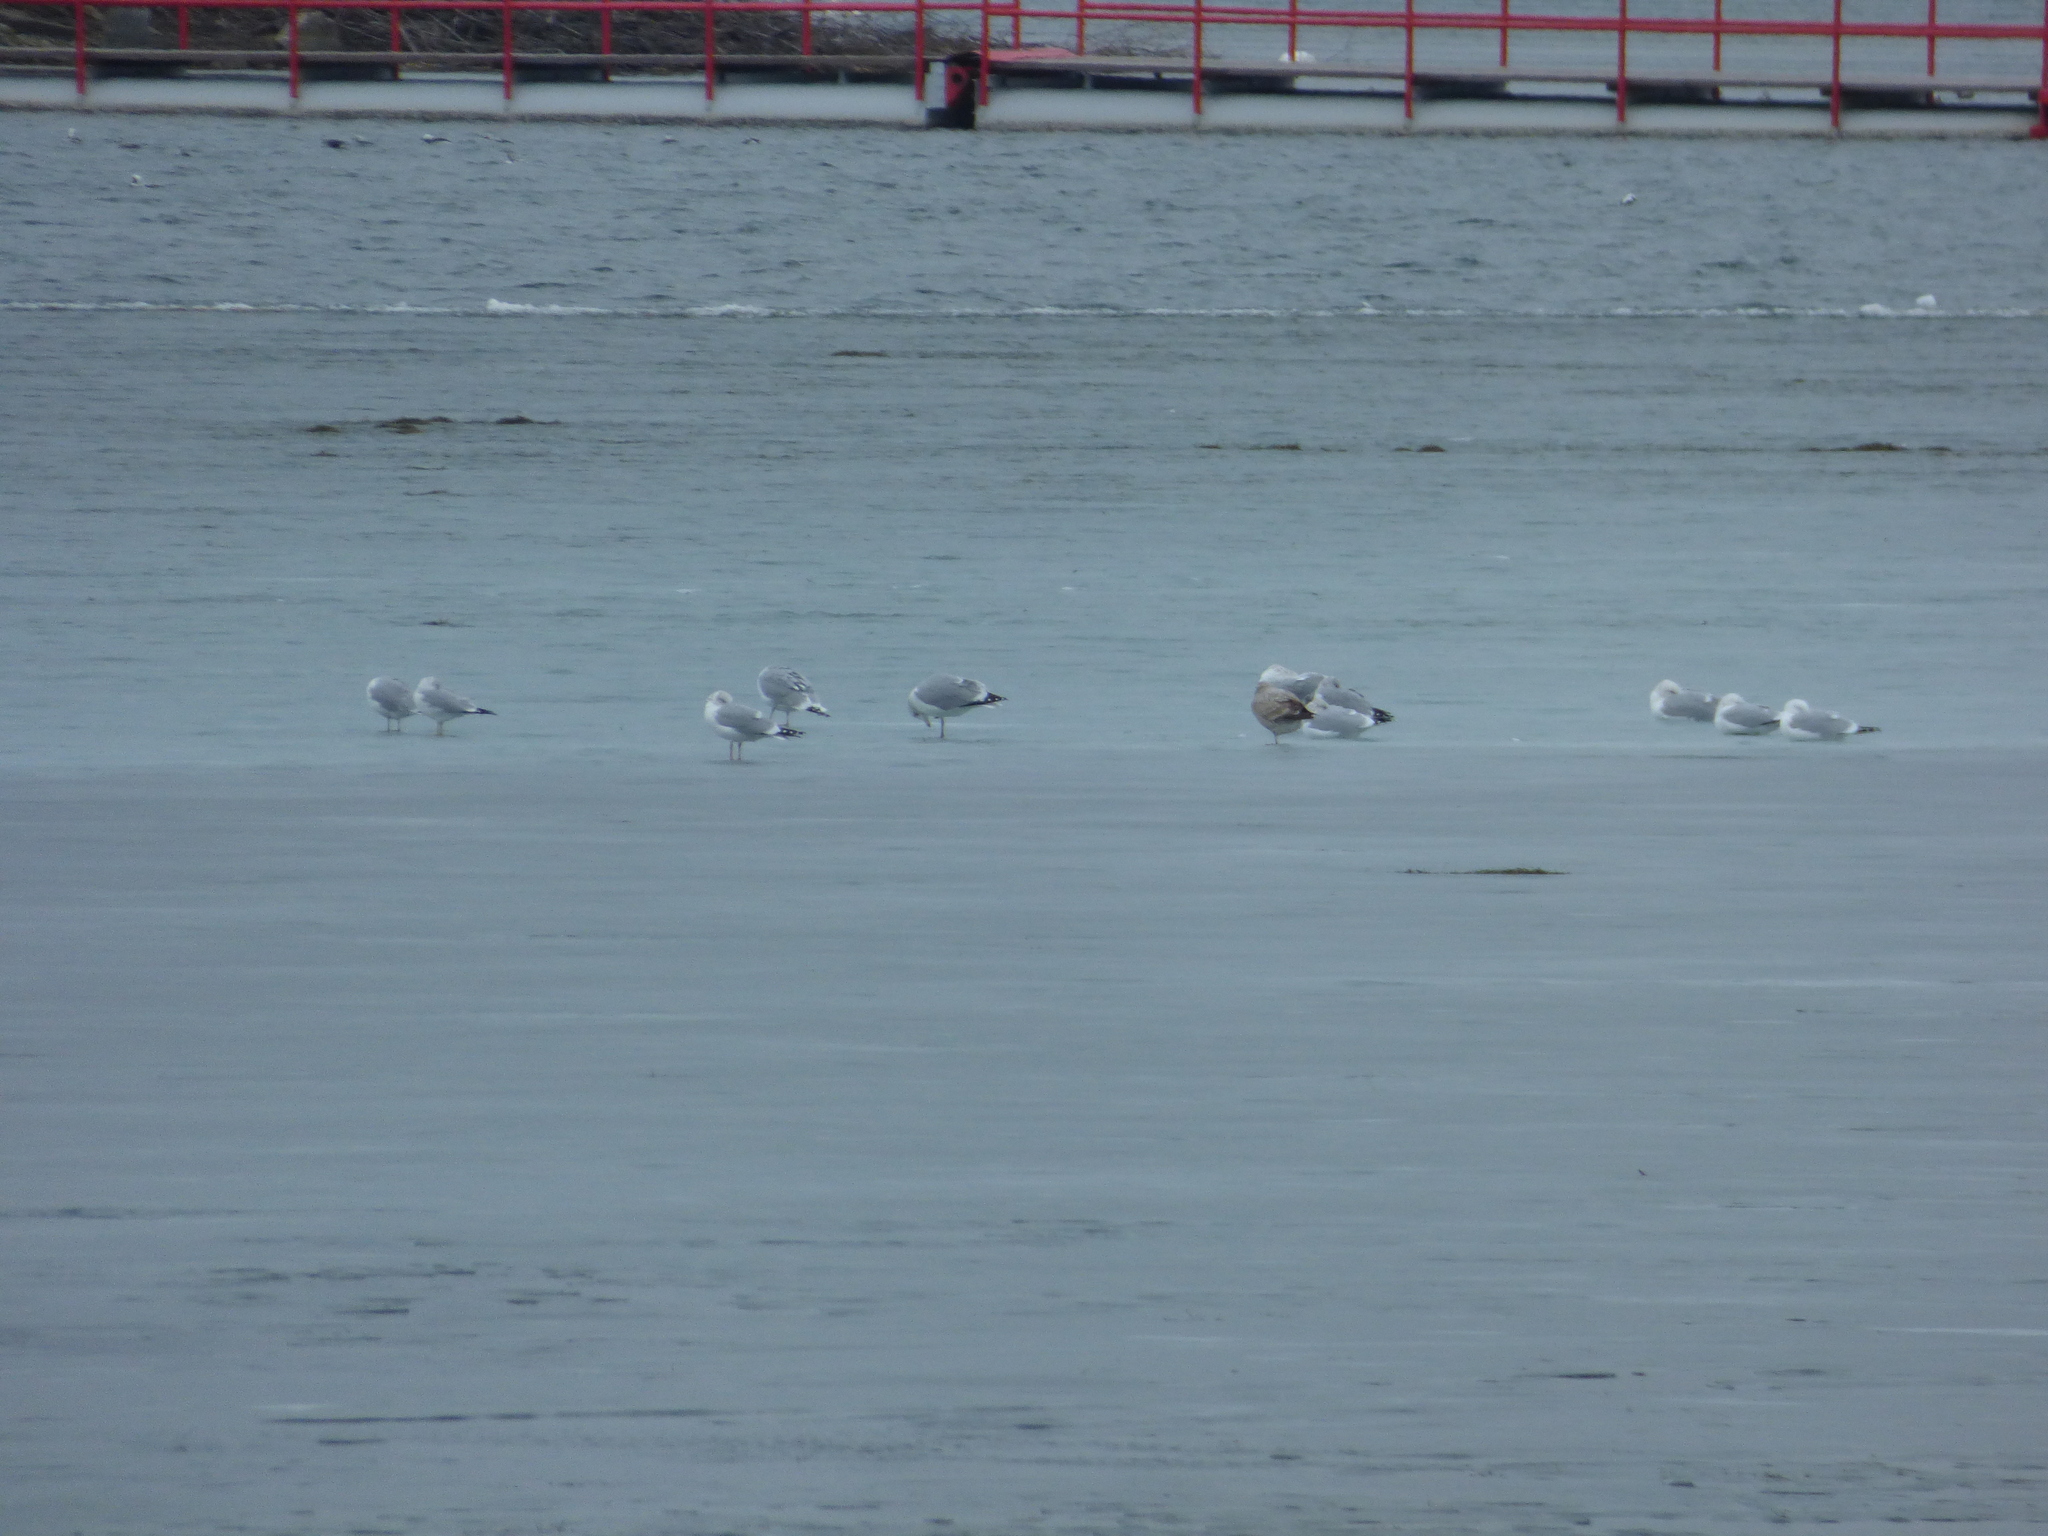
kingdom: Animalia
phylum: Chordata
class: Aves
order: Charadriiformes
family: Laridae
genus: Larus
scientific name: Larus argentatus
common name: Herring gull
